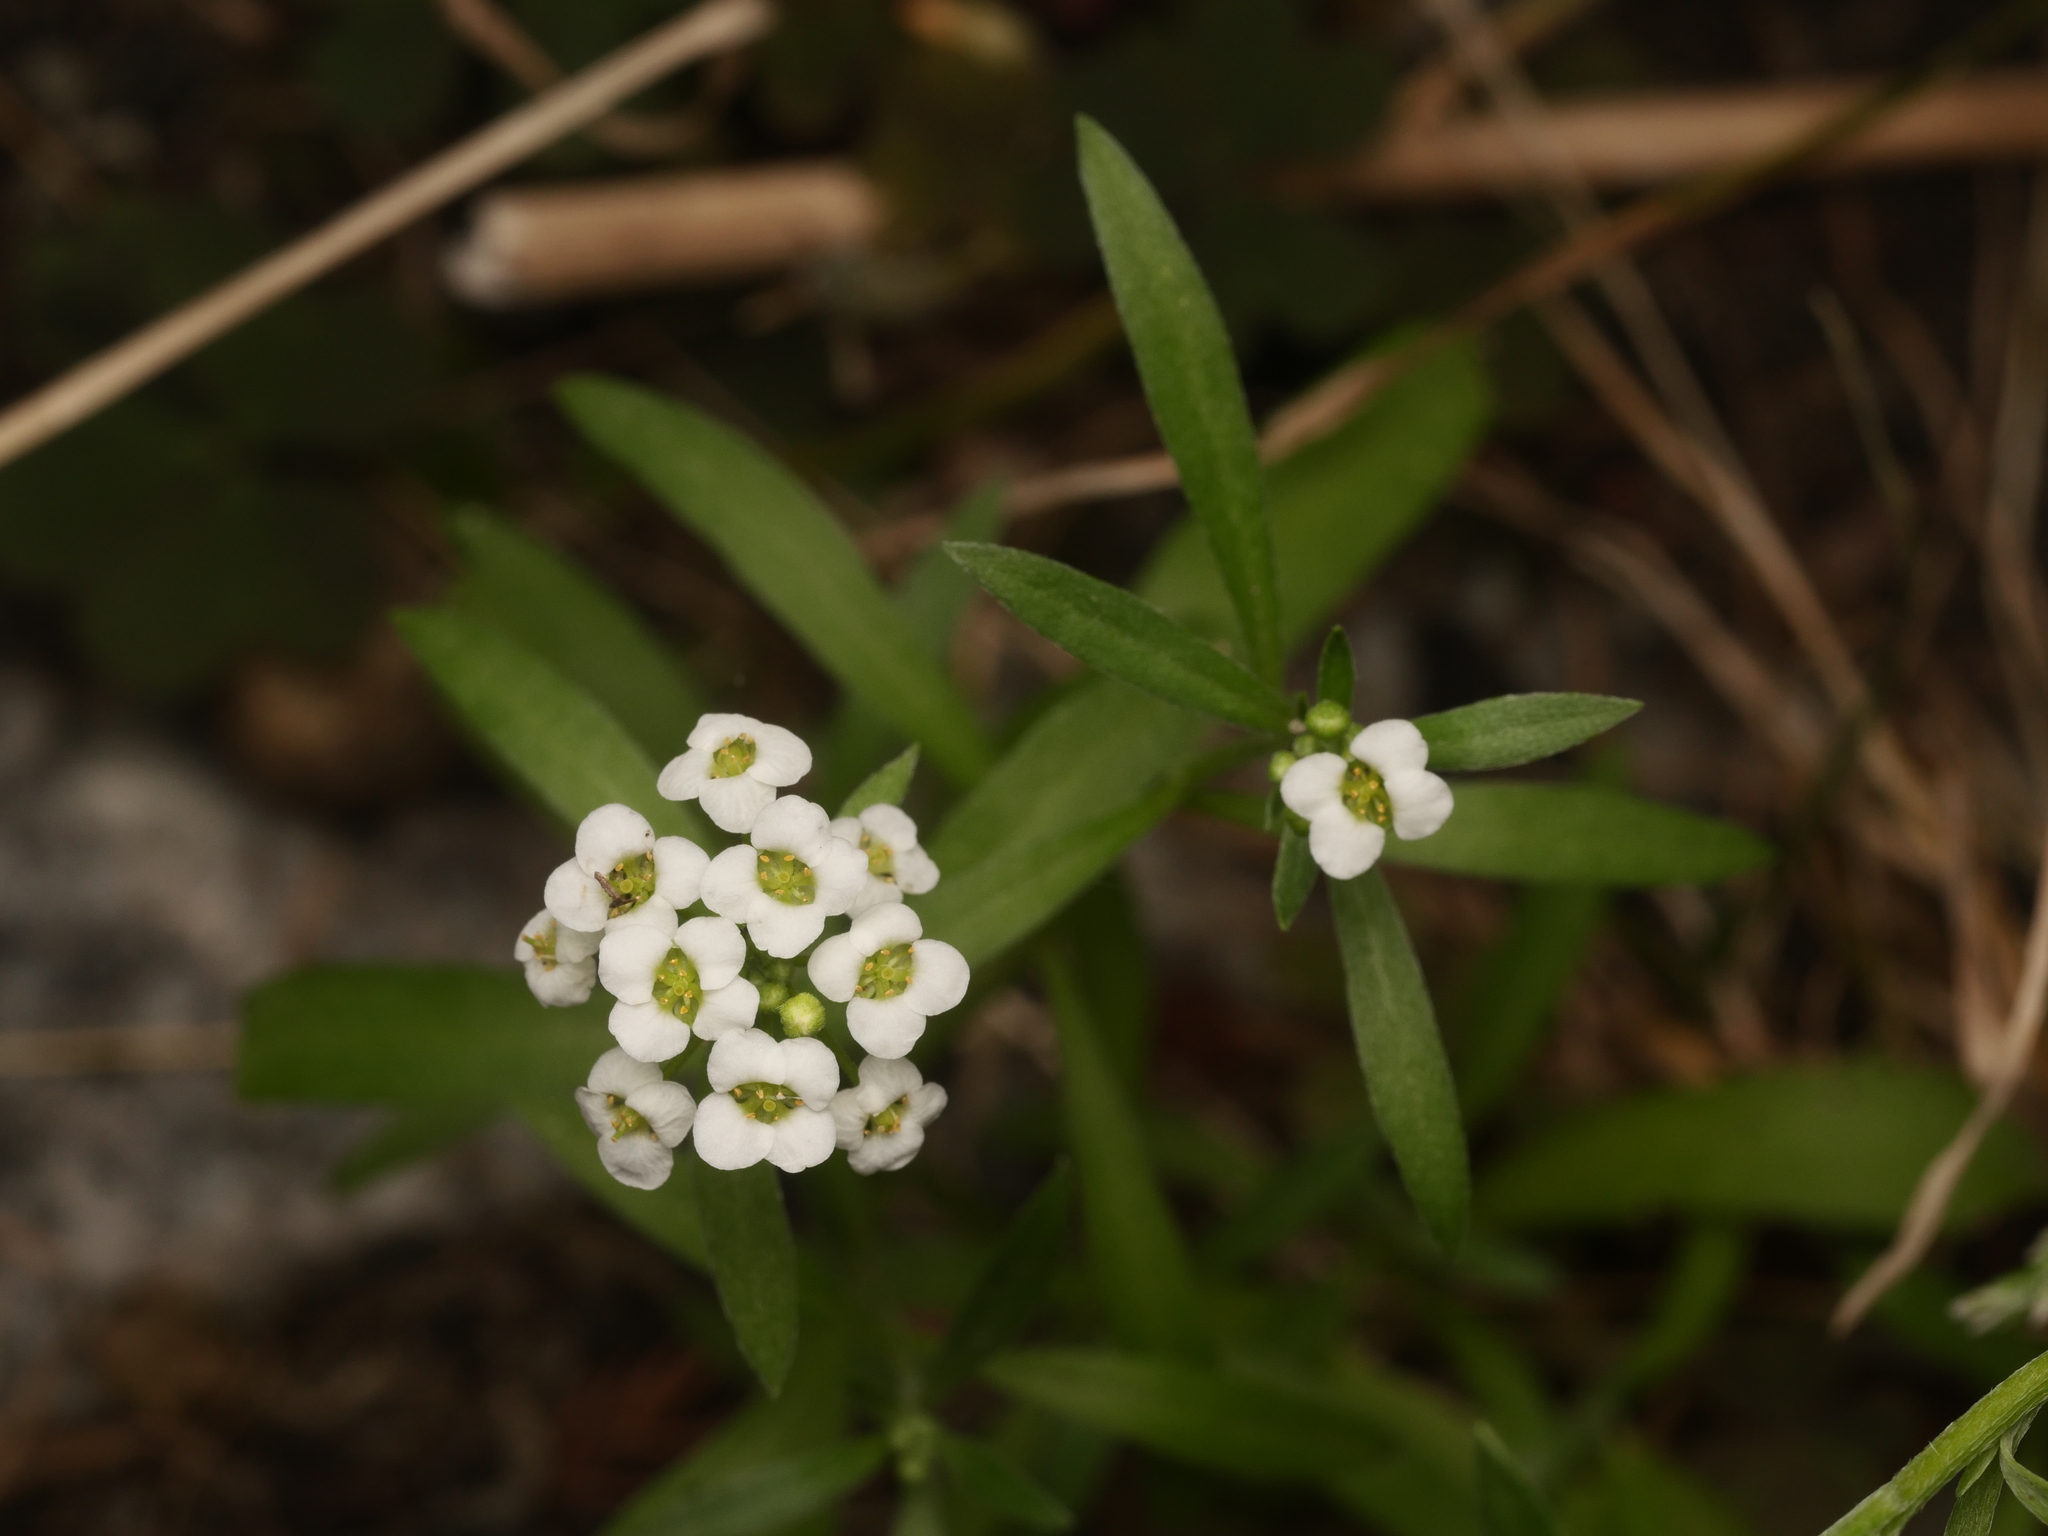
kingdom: Plantae
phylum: Tracheophyta
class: Magnoliopsida
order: Brassicales
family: Brassicaceae
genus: Lobularia
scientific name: Lobularia maritima
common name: Sweet alison
